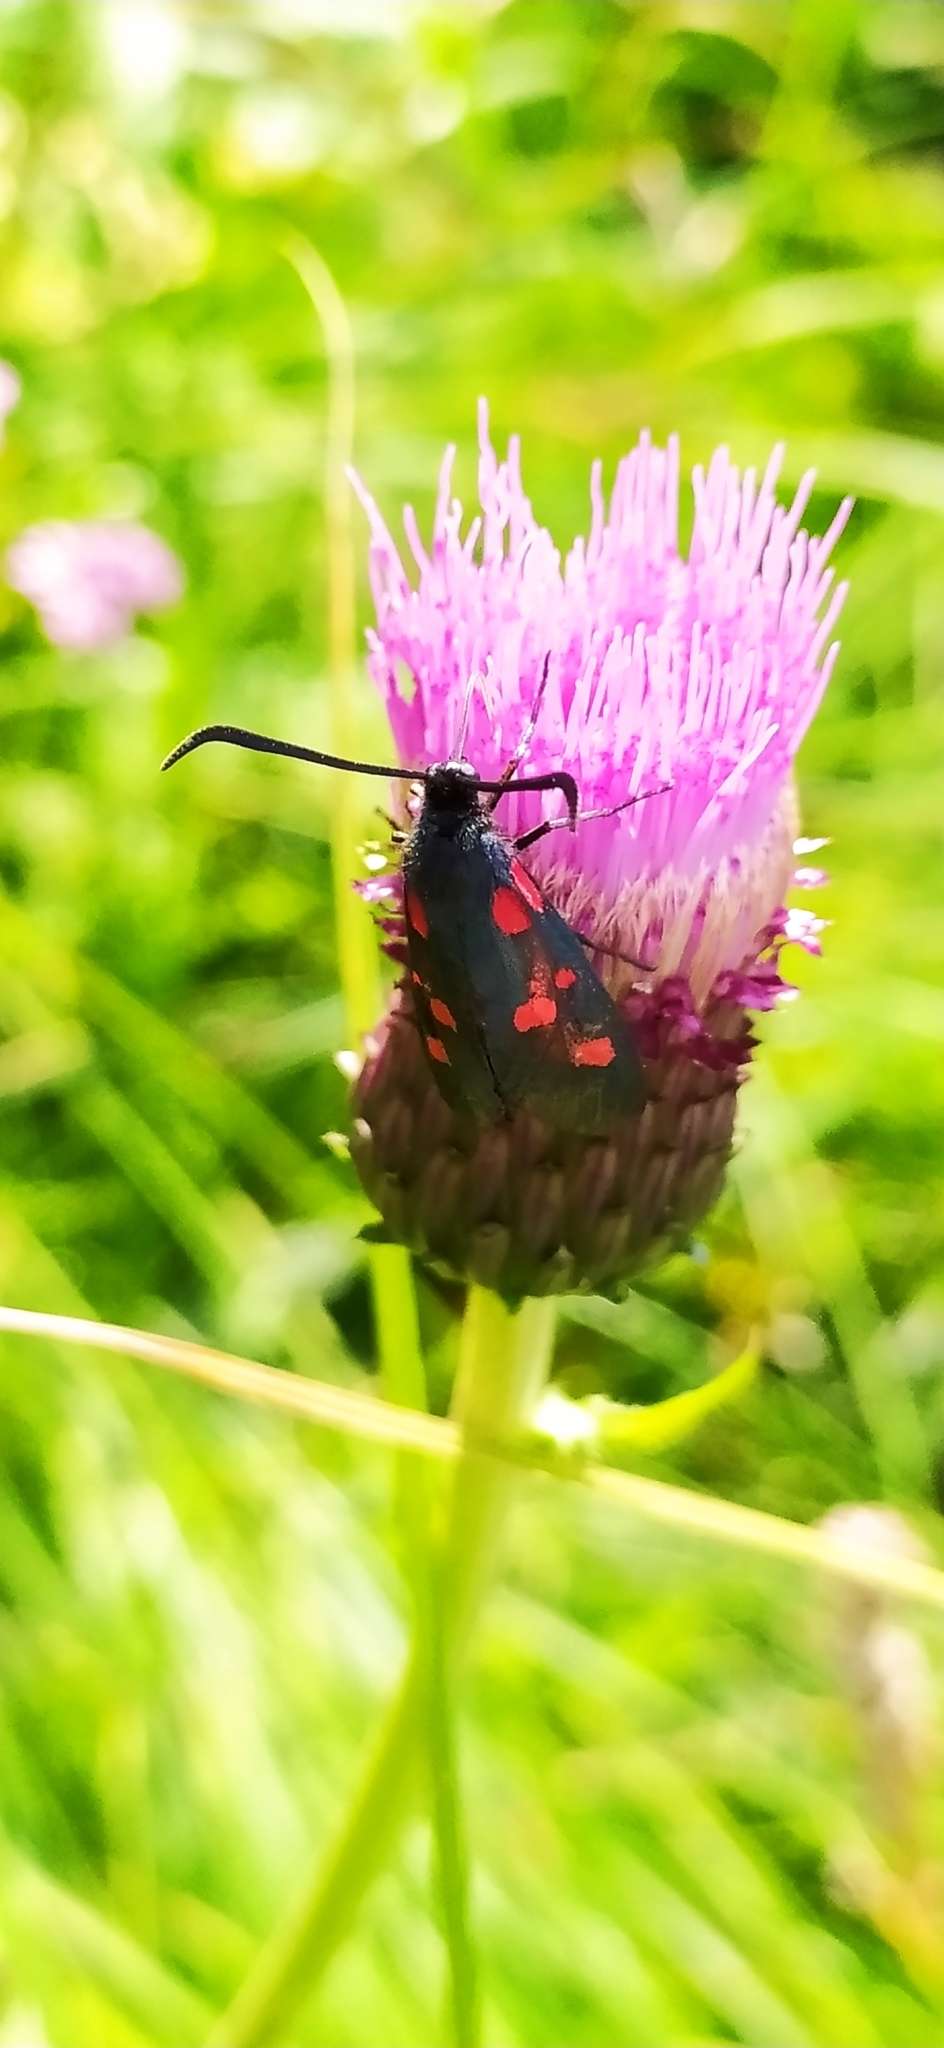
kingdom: Animalia
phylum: Arthropoda
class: Insecta
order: Lepidoptera
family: Zygaenidae
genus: Zygaena
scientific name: Zygaena lonicerae
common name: Narrow-bordered five-spot burnet
